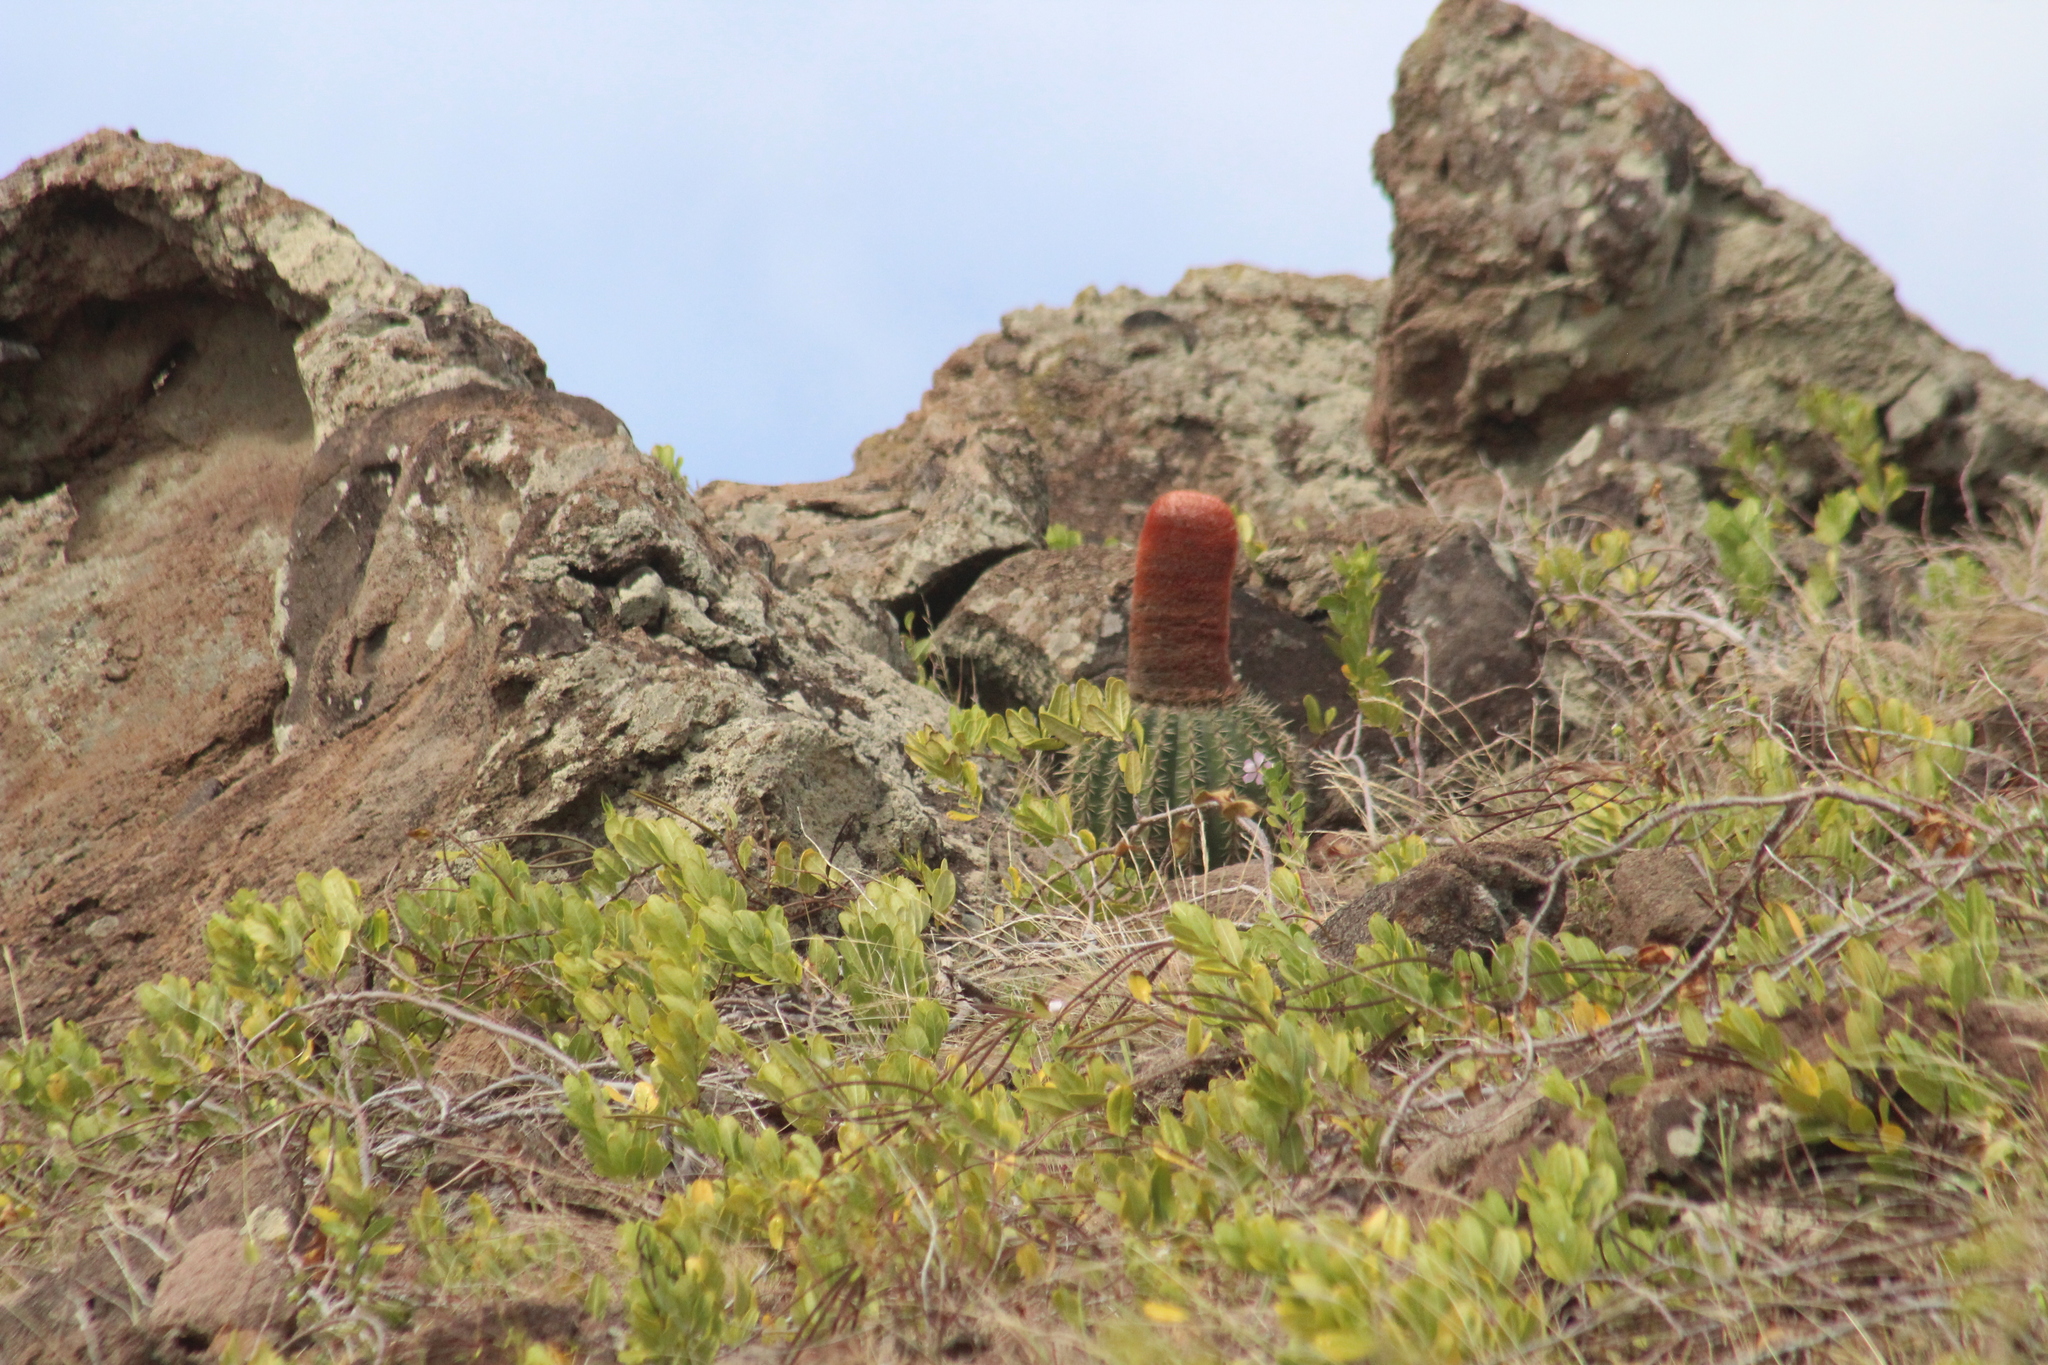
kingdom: Plantae
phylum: Tracheophyta
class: Magnoliopsida
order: Caryophyllales
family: Cactaceae
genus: Melocactus
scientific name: Melocactus intortus
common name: Barrel cactus
